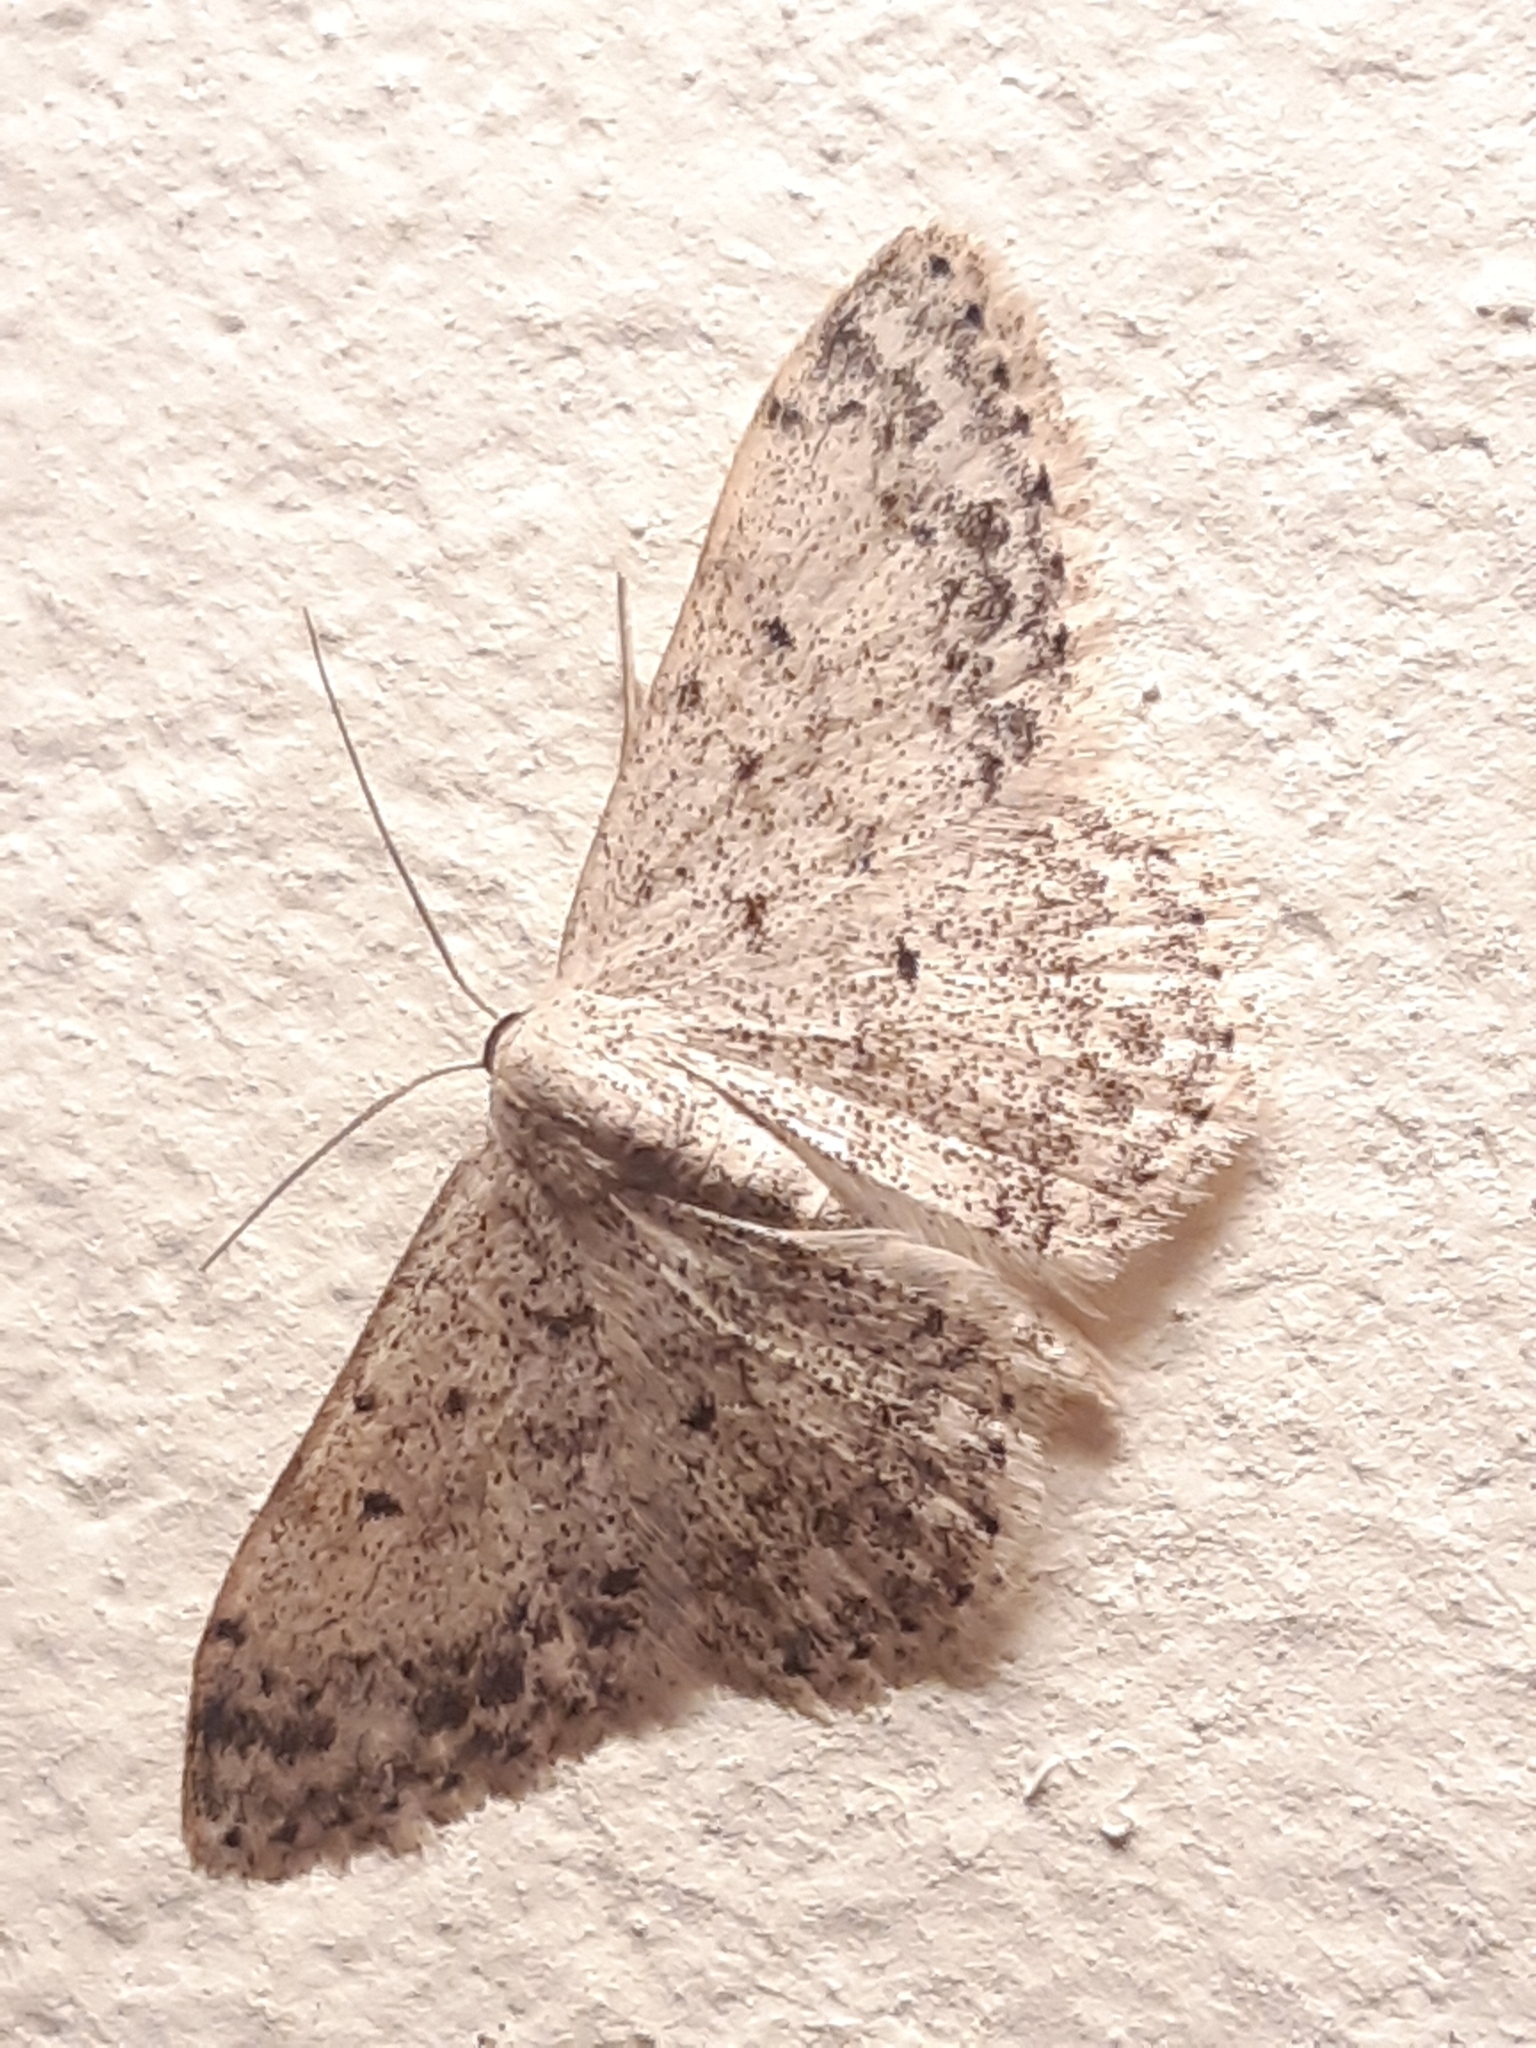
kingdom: Animalia
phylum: Arthropoda
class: Insecta
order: Lepidoptera
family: Geometridae
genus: Scopula
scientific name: Scopula marginepunctata
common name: Mullein wave
